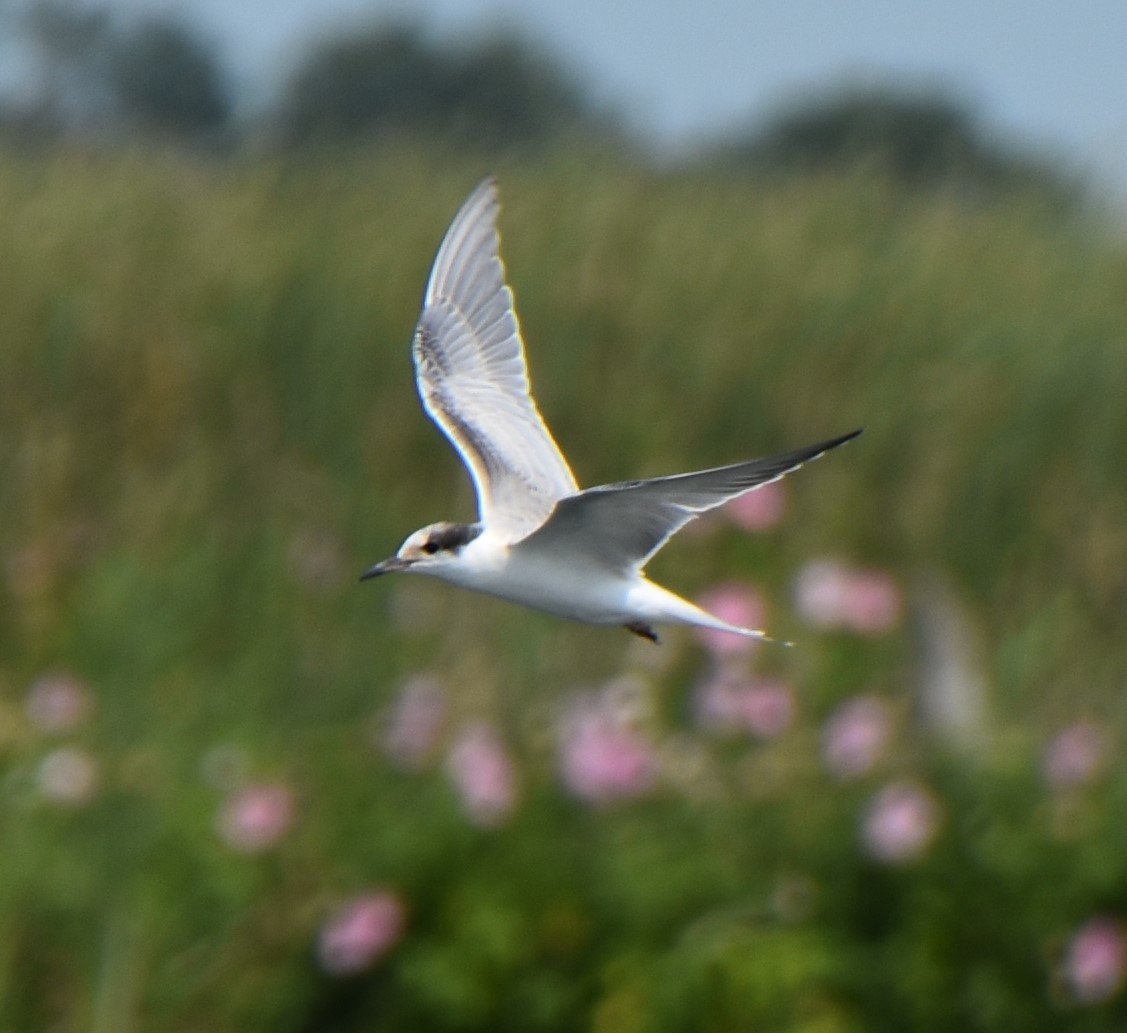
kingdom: Animalia
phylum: Chordata
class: Aves
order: Charadriiformes
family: Laridae
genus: Sterna
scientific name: Sterna forsteri
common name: Forster's tern
